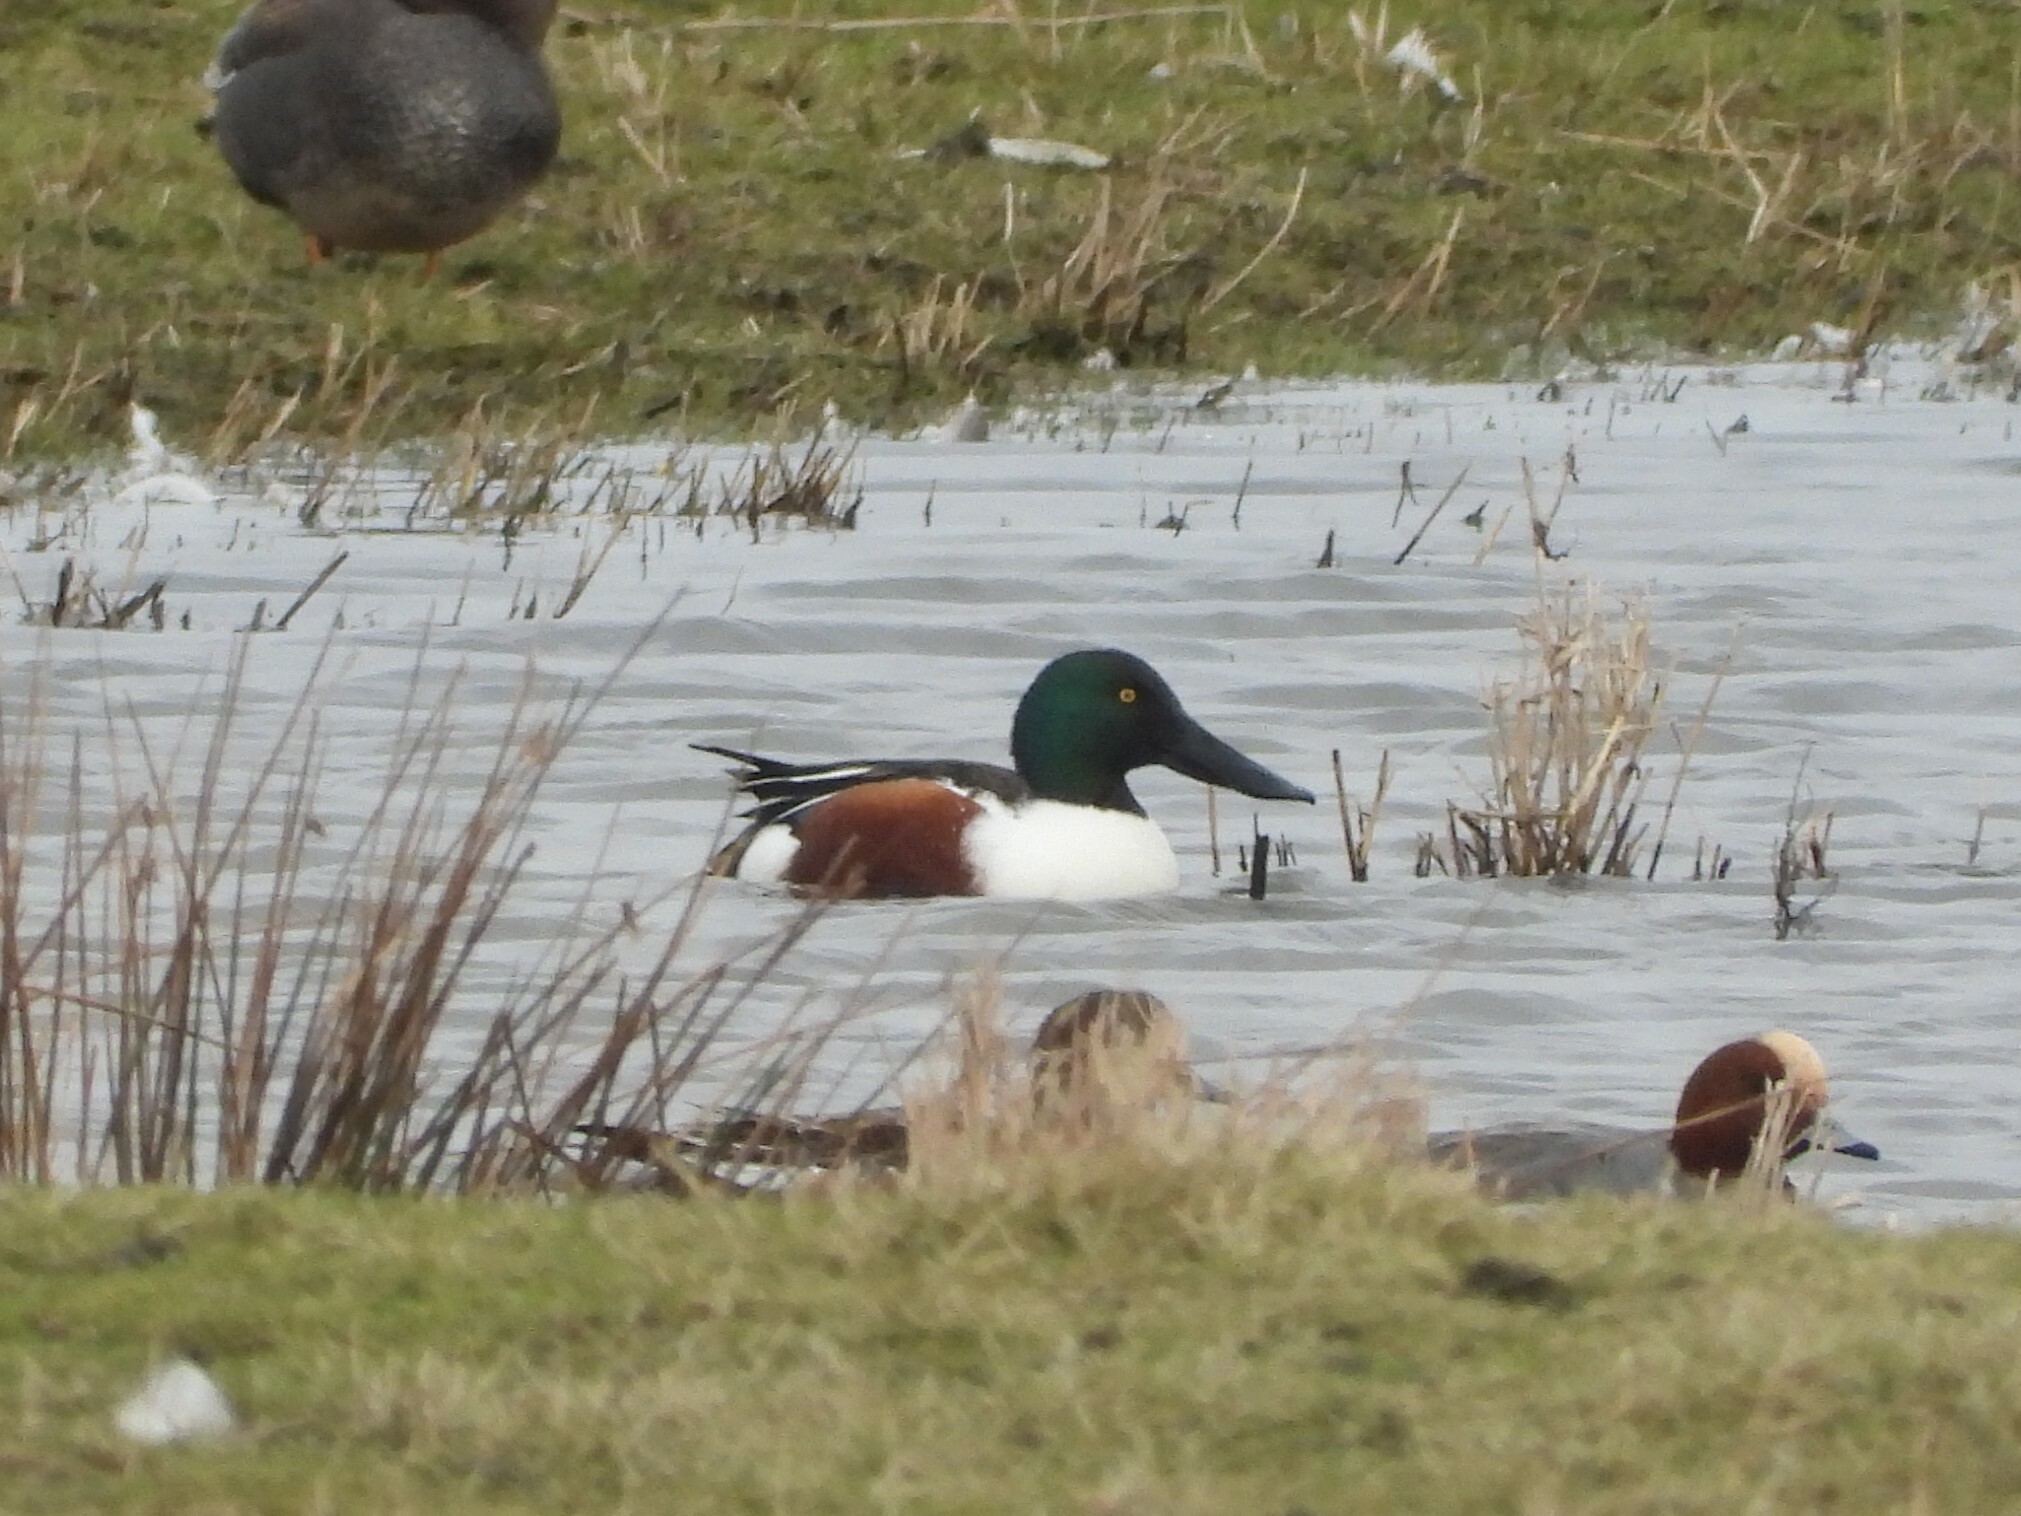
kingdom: Animalia
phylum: Chordata
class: Aves
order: Anseriformes
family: Anatidae
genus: Spatula
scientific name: Spatula clypeata
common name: Northern shoveler
